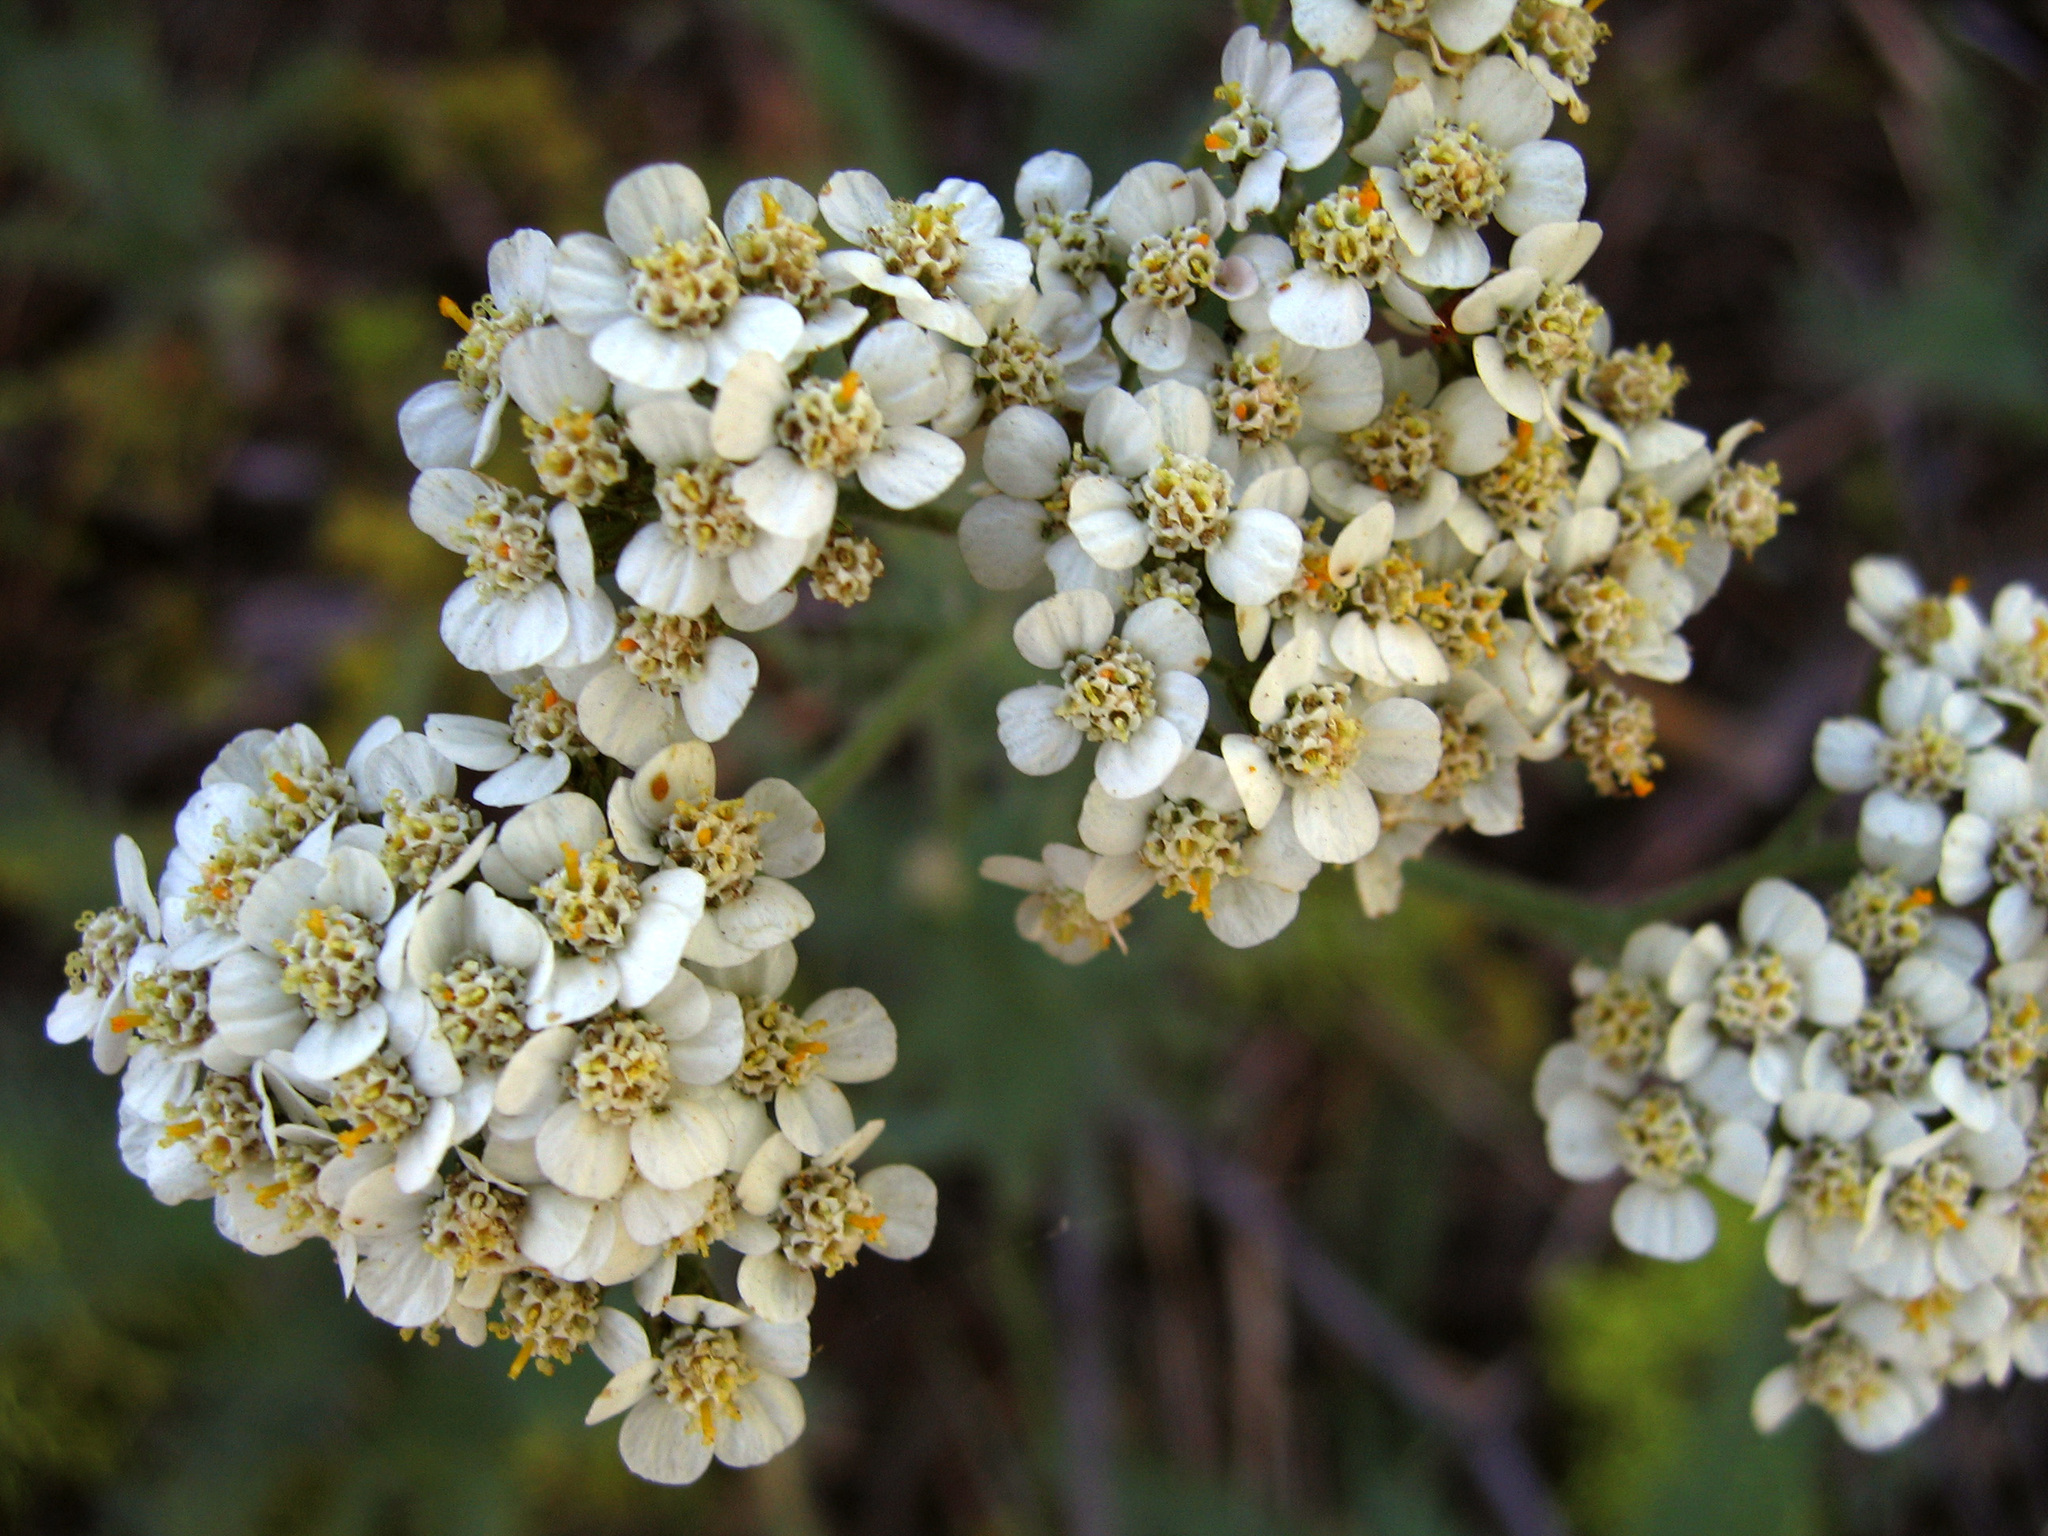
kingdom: Plantae
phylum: Tracheophyta
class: Magnoliopsida
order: Asterales
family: Asteraceae
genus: Achillea
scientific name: Achillea millefolium
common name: Yarrow
